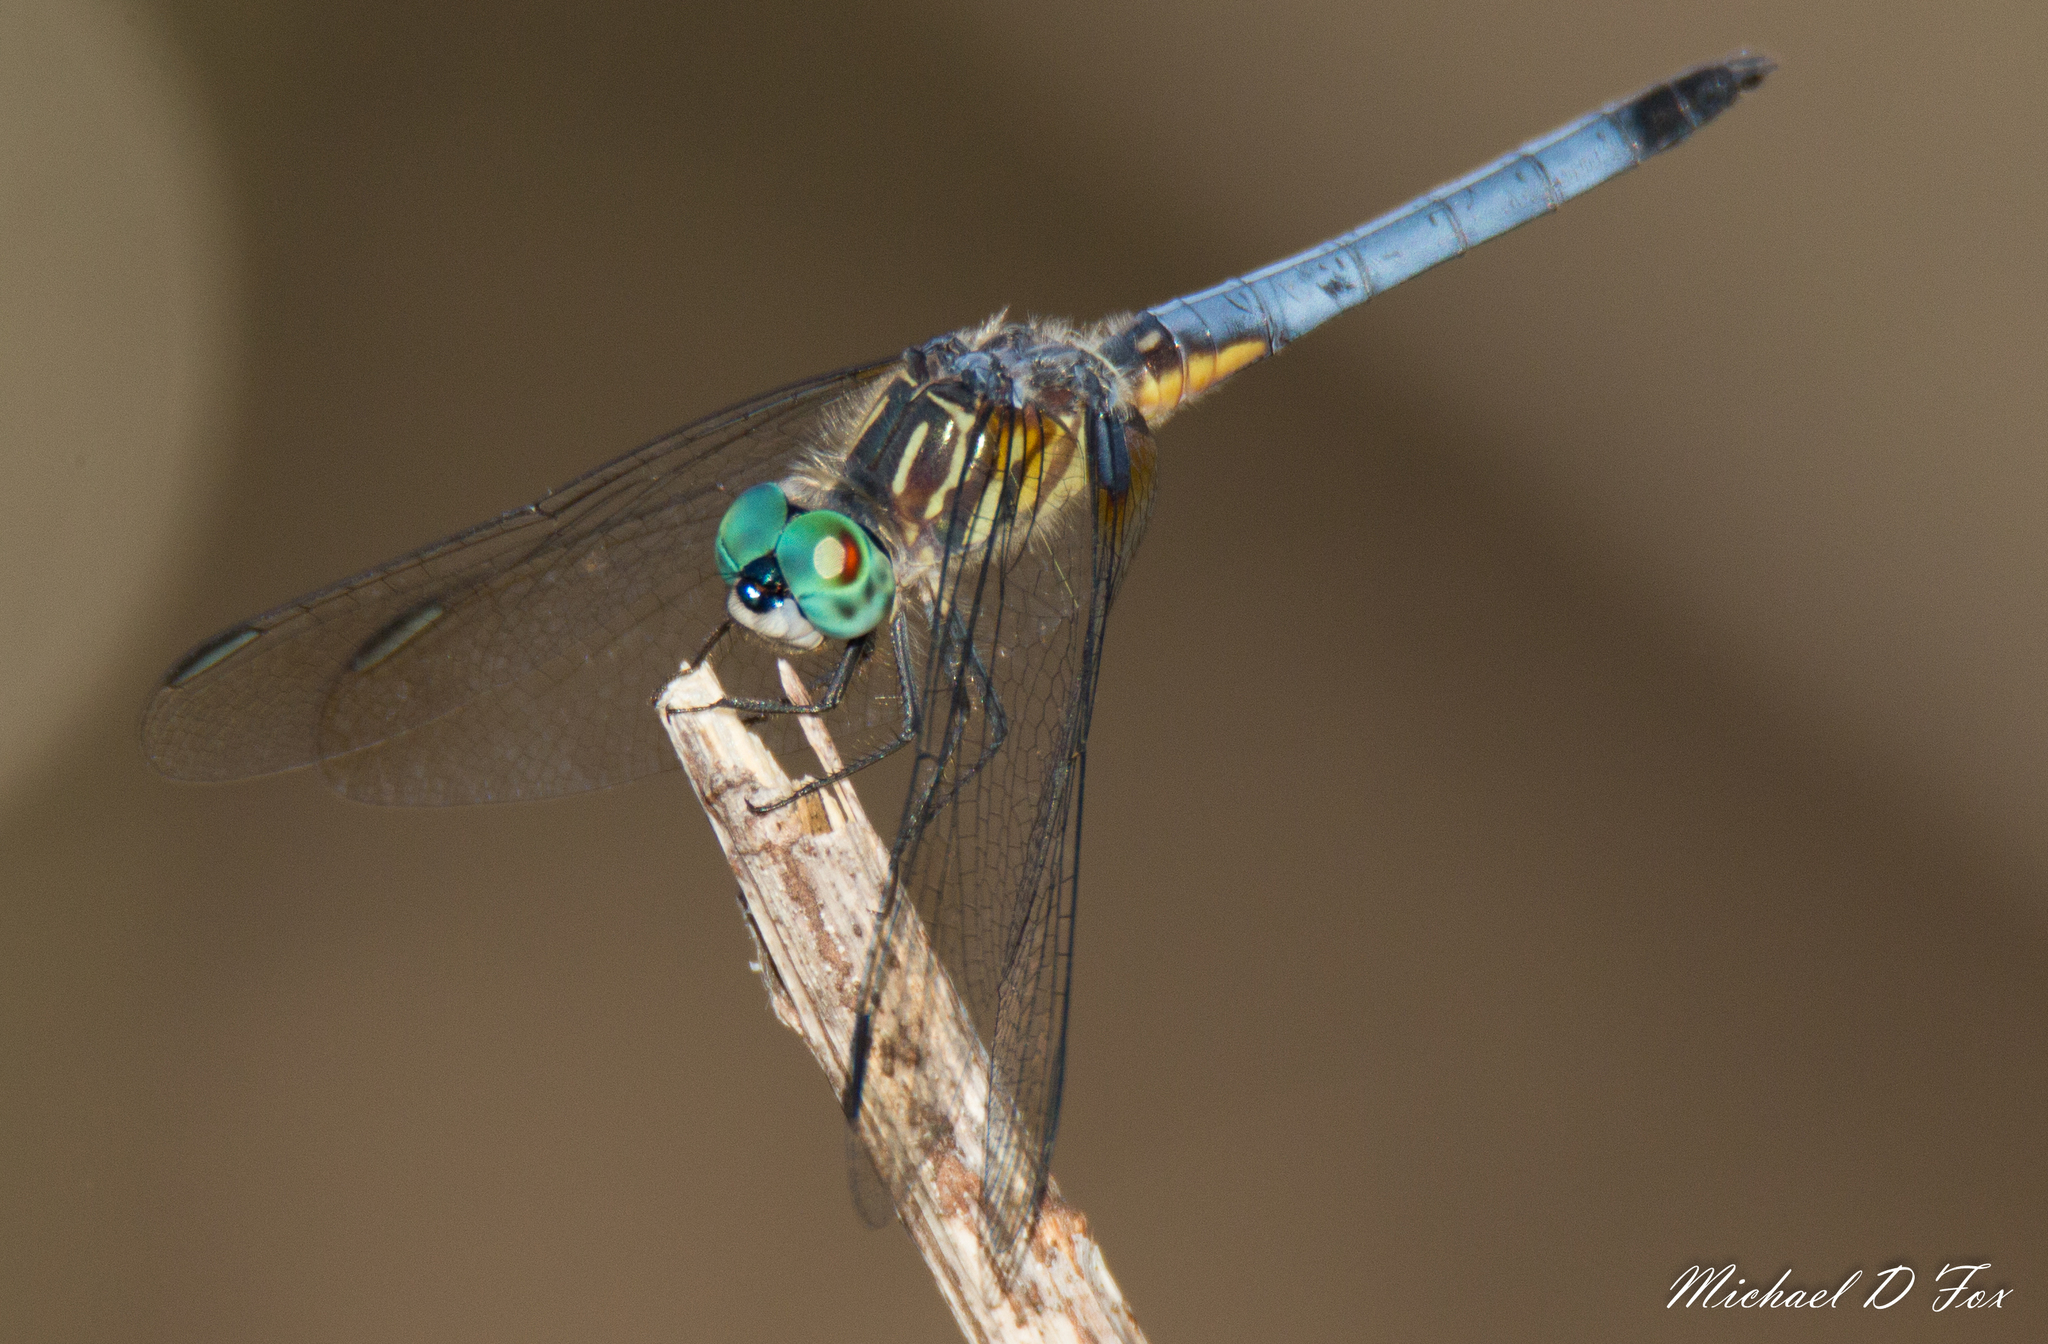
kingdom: Animalia
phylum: Arthropoda
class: Insecta
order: Odonata
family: Libellulidae
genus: Pachydiplax
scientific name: Pachydiplax longipennis
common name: Blue dasher
